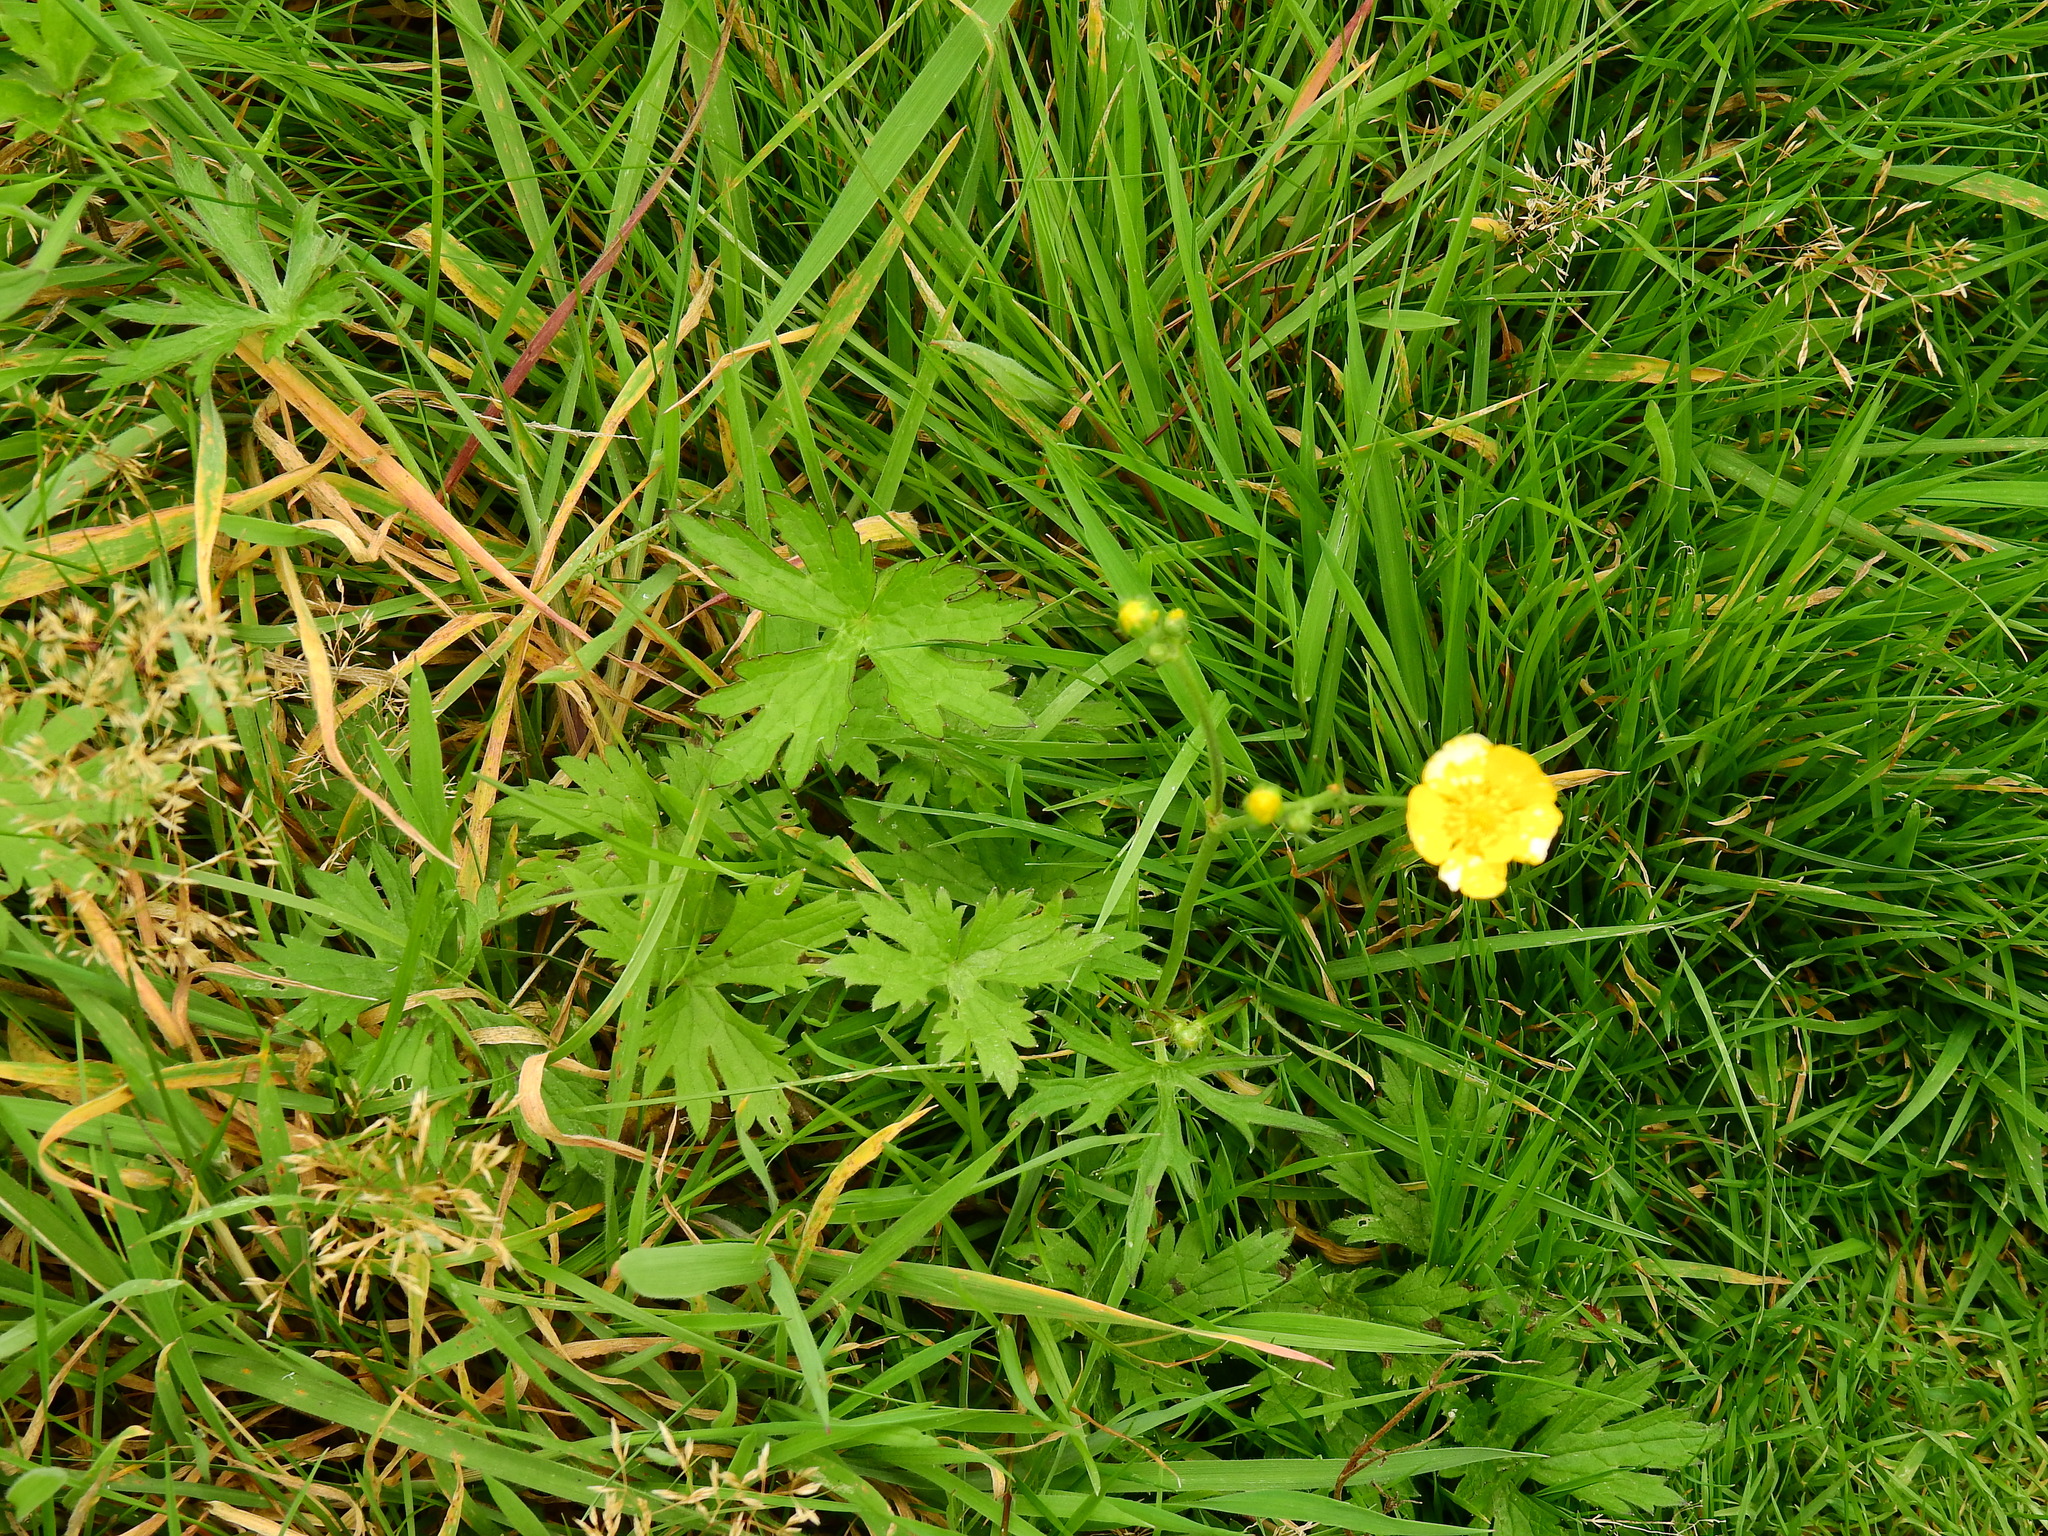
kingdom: Plantae
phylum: Tracheophyta
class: Magnoliopsida
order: Ranunculales
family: Ranunculaceae
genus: Ranunculus
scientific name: Ranunculus acris
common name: Meadow buttercup
